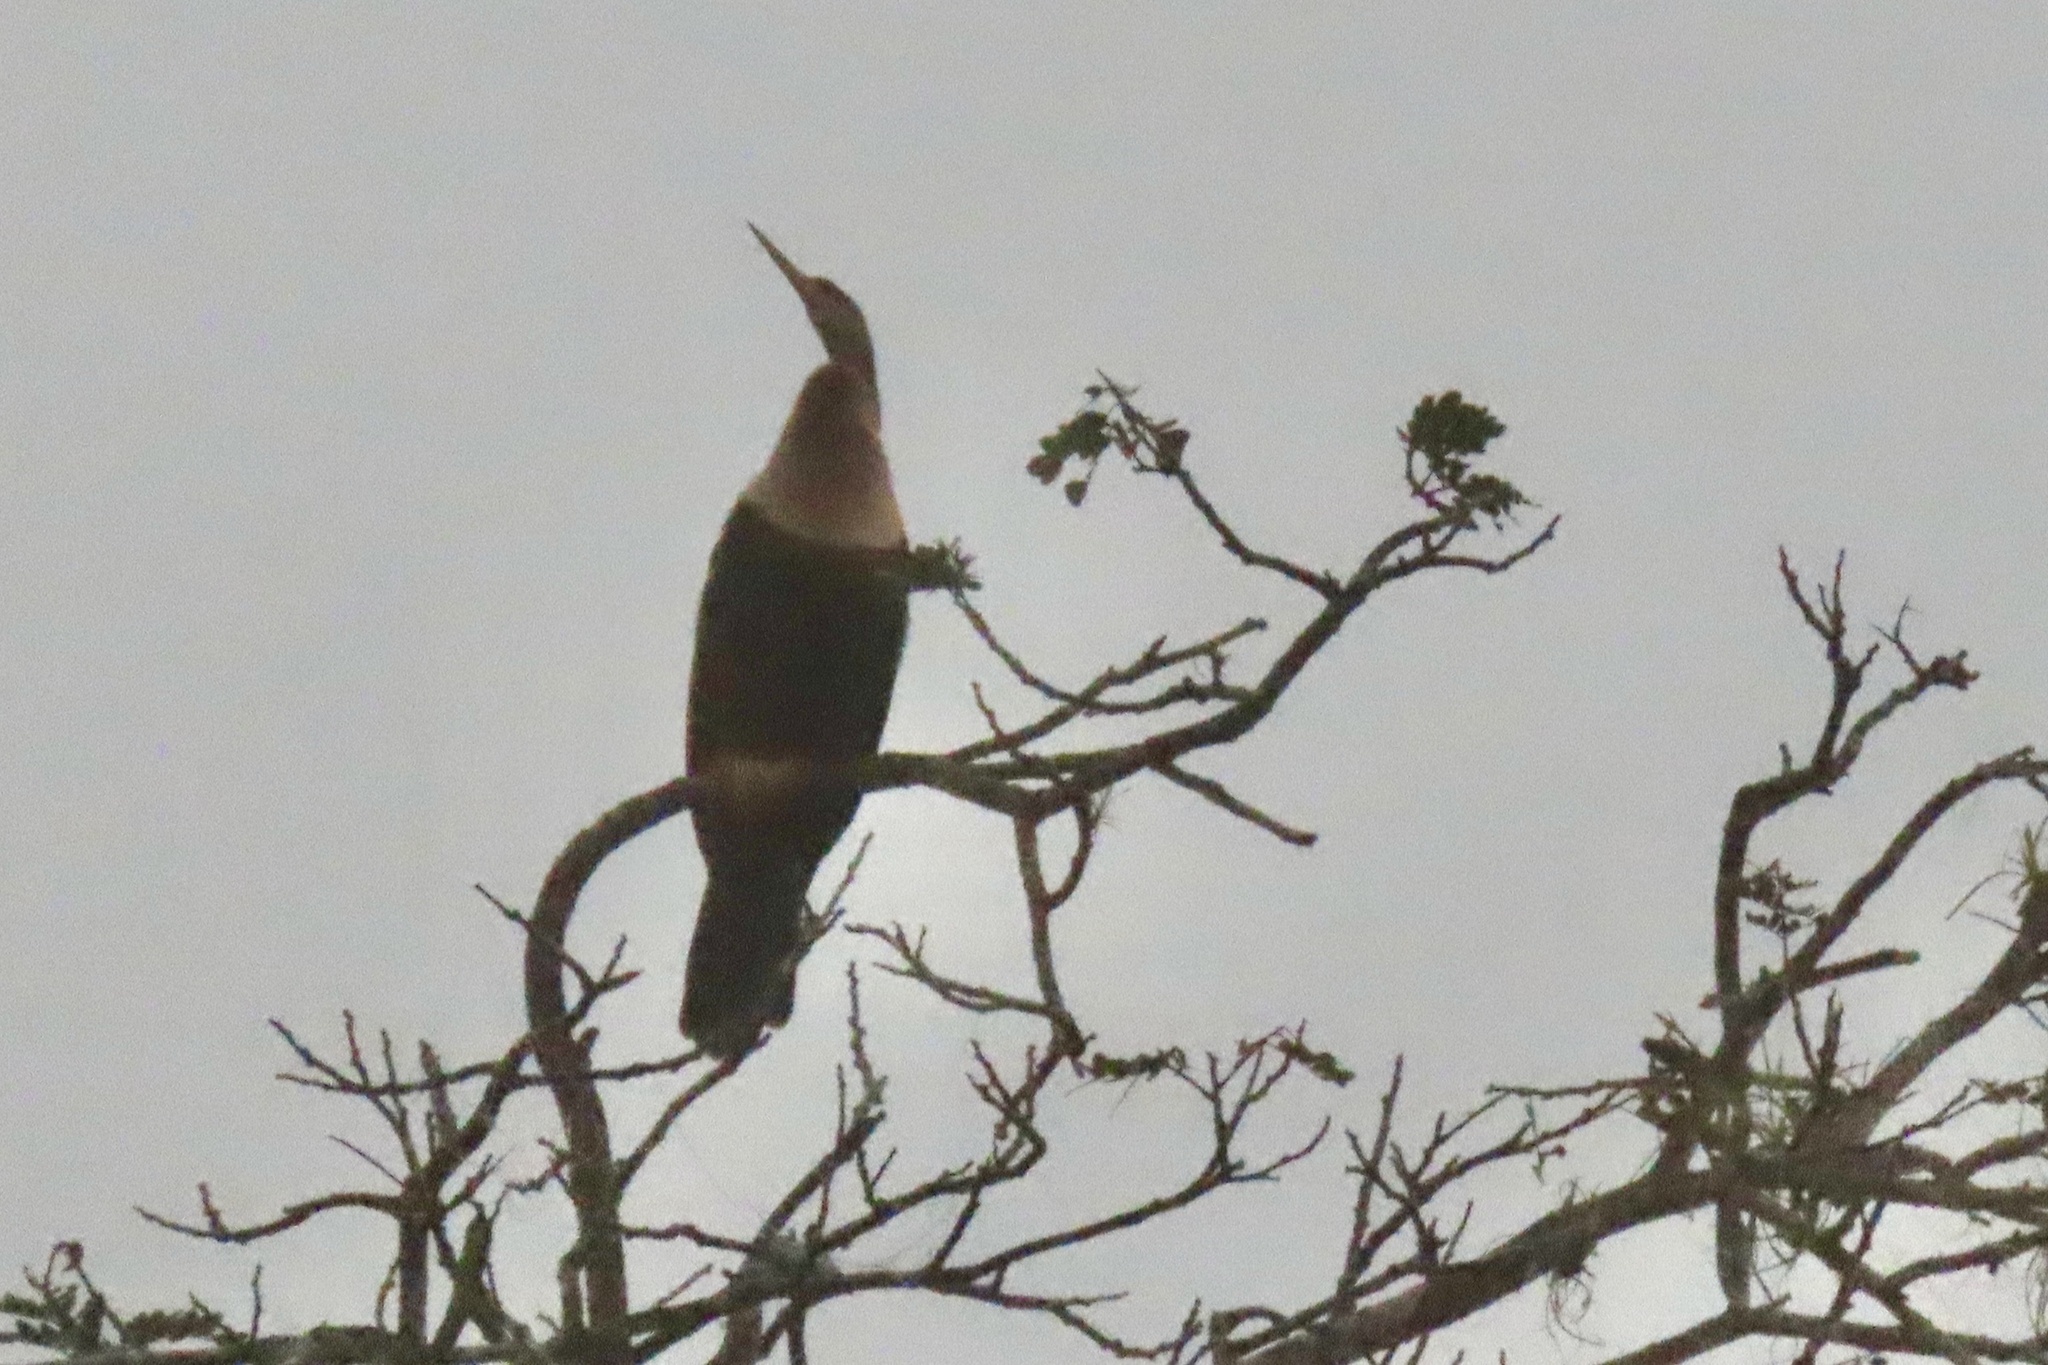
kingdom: Animalia
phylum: Chordata
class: Aves
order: Suliformes
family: Anhingidae
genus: Anhinga
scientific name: Anhinga anhinga
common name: Anhinga
